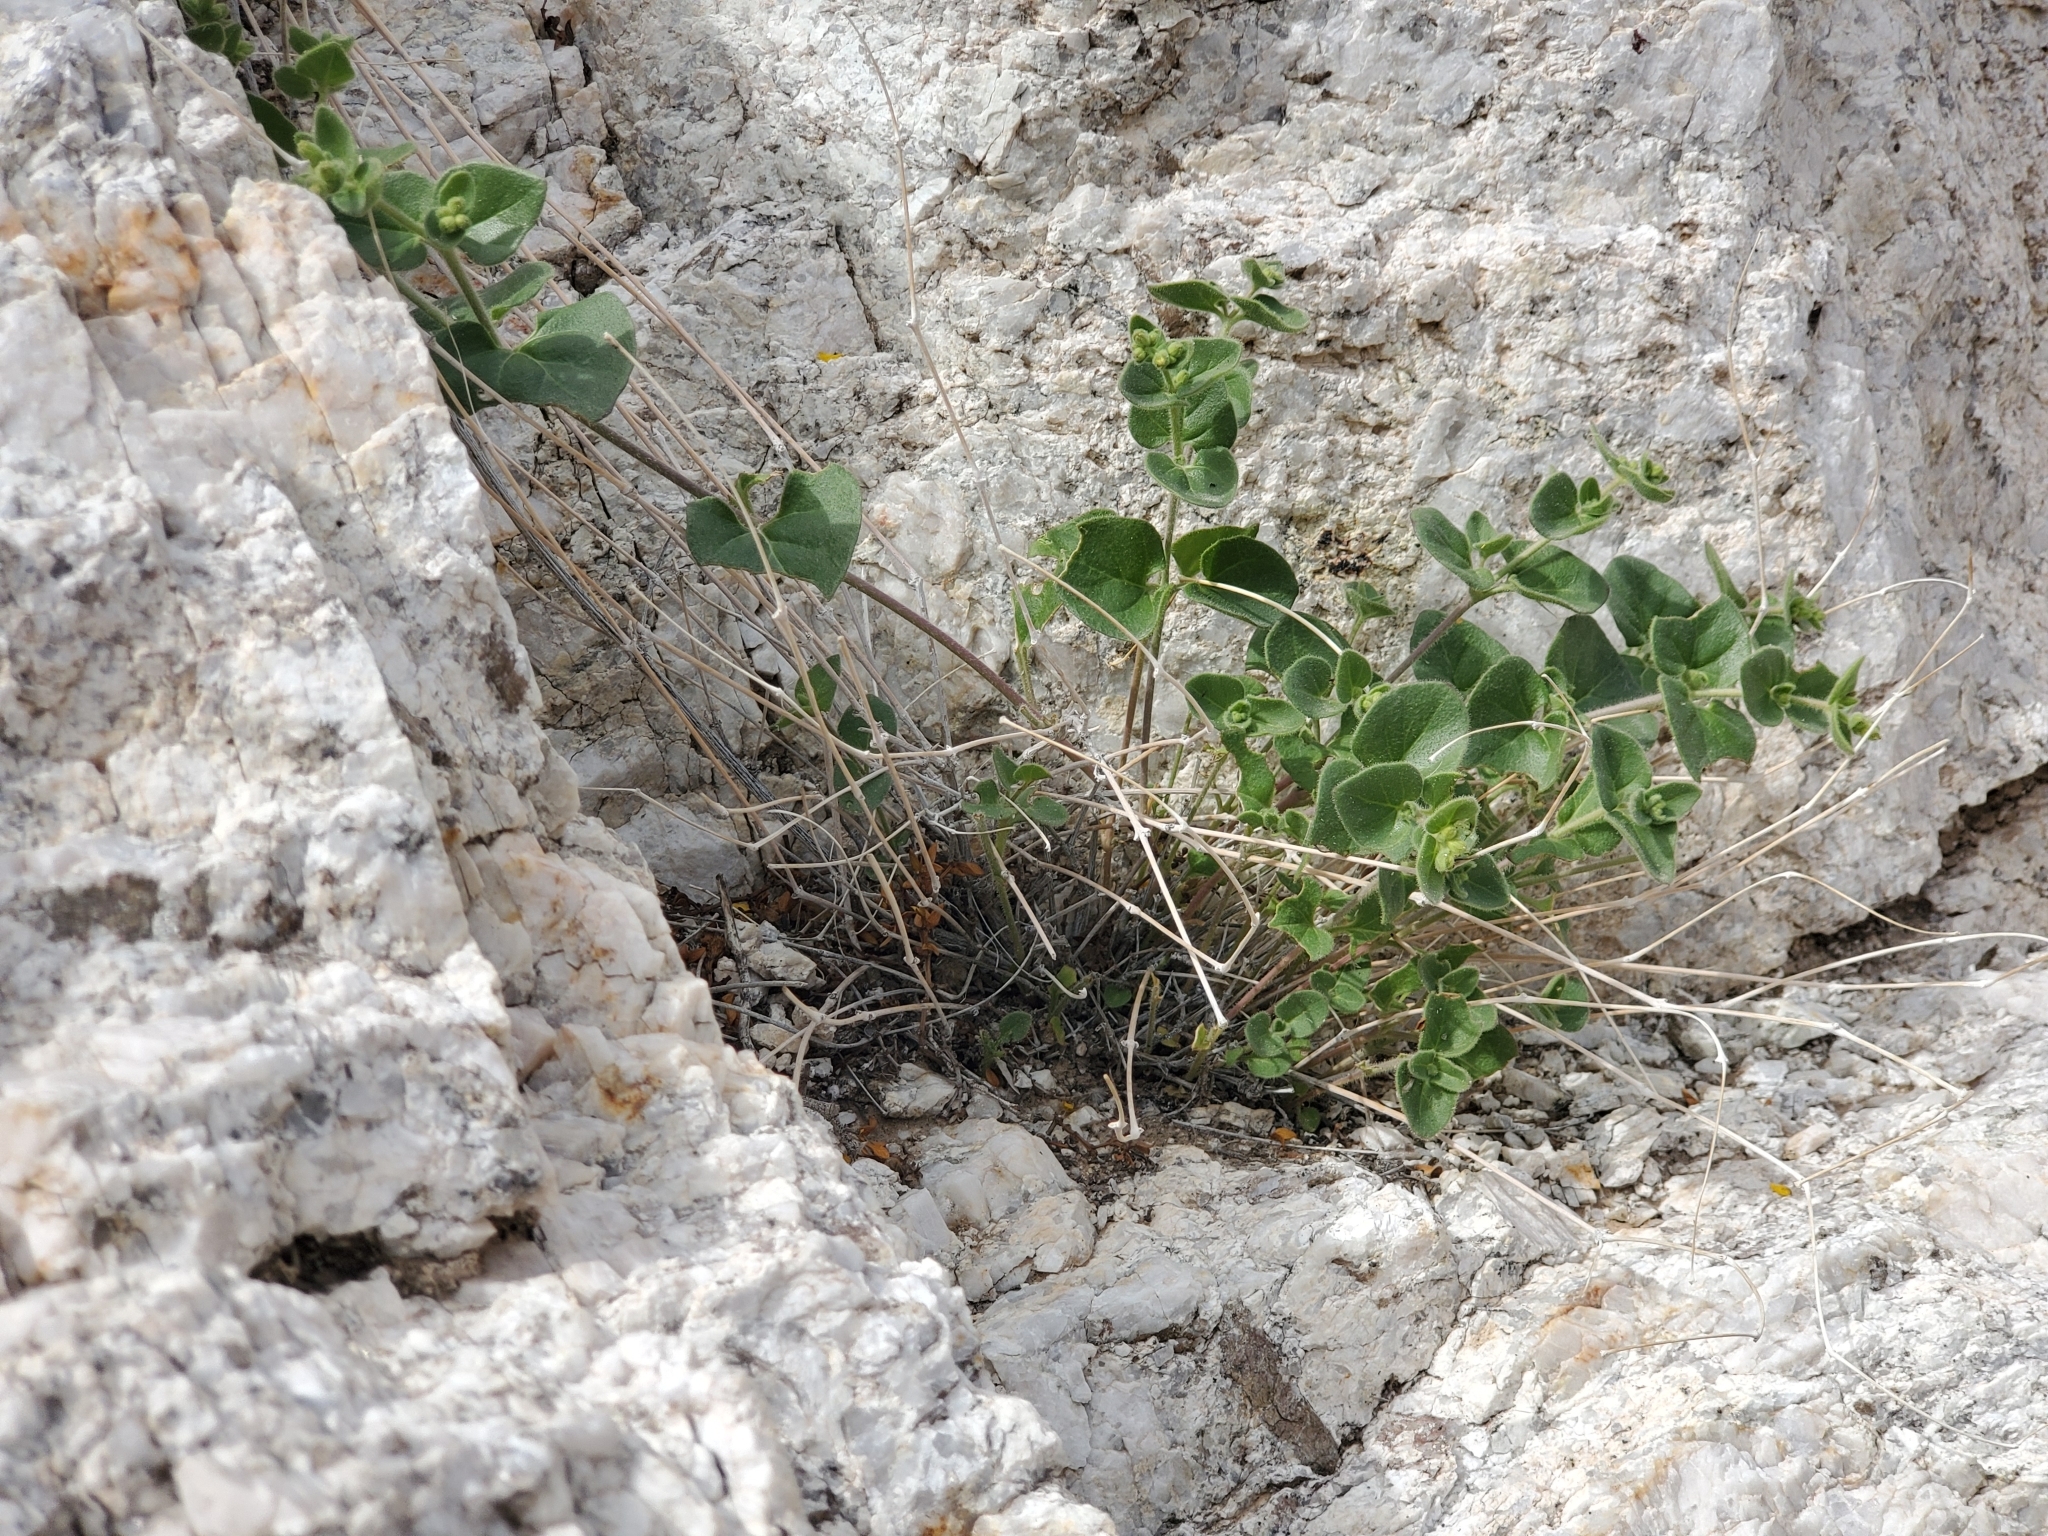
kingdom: Plantae
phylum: Tracheophyta
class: Magnoliopsida
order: Caryophyllales
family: Nyctaginaceae
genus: Mirabilis
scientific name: Mirabilis laevis
